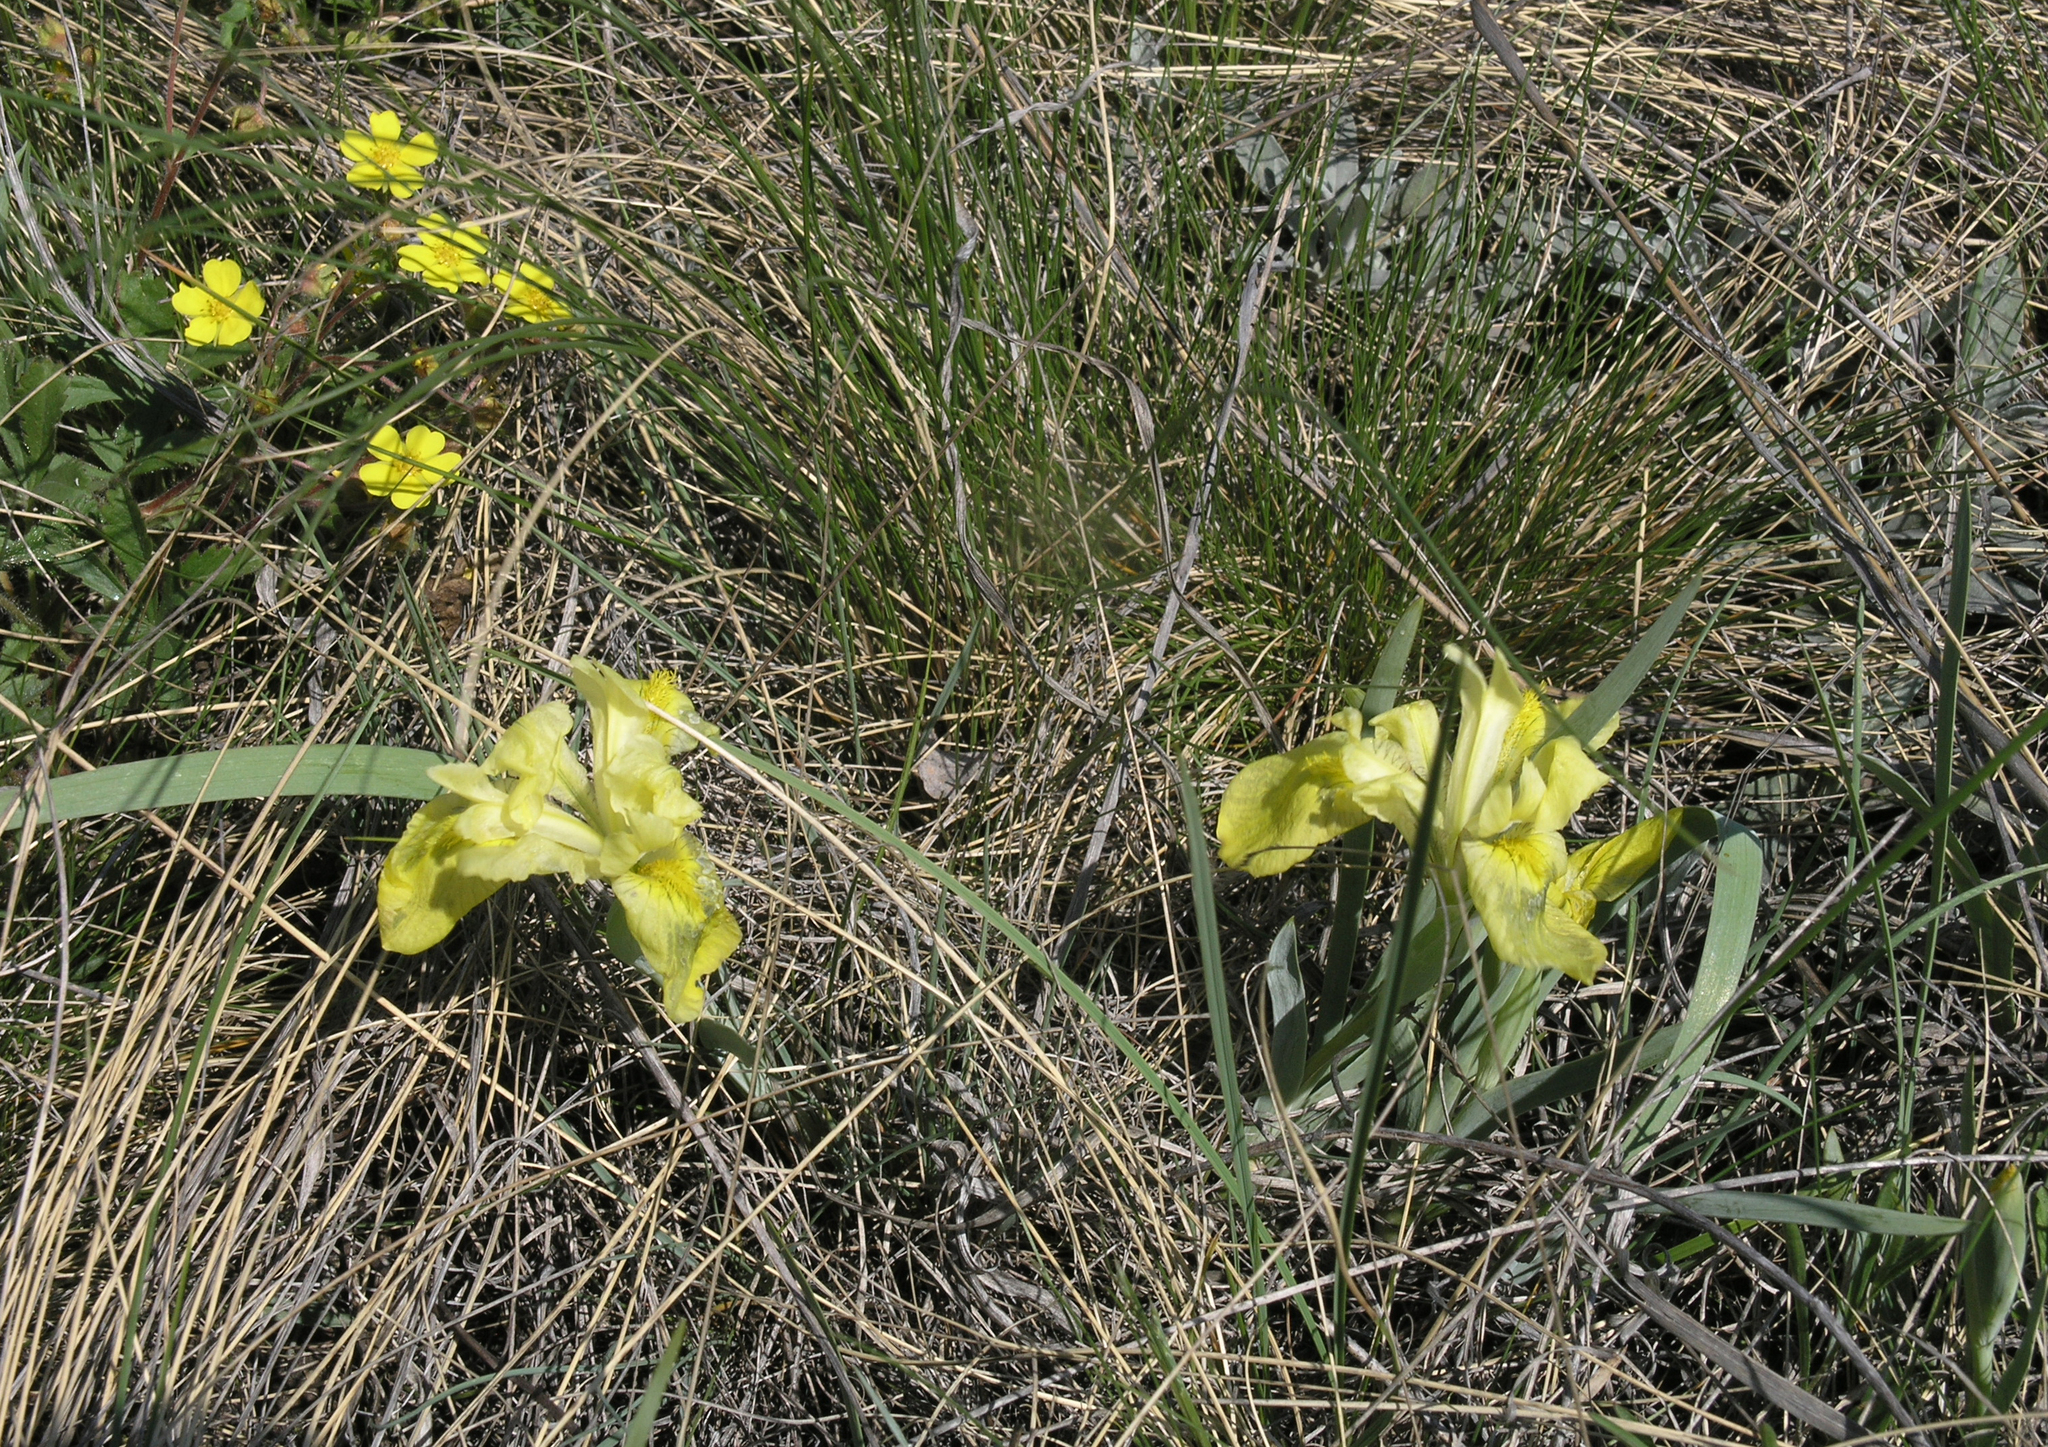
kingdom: Plantae
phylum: Tracheophyta
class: Liliopsida
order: Asparagales
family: Iridaceae
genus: Iris
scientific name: Iris humilis
